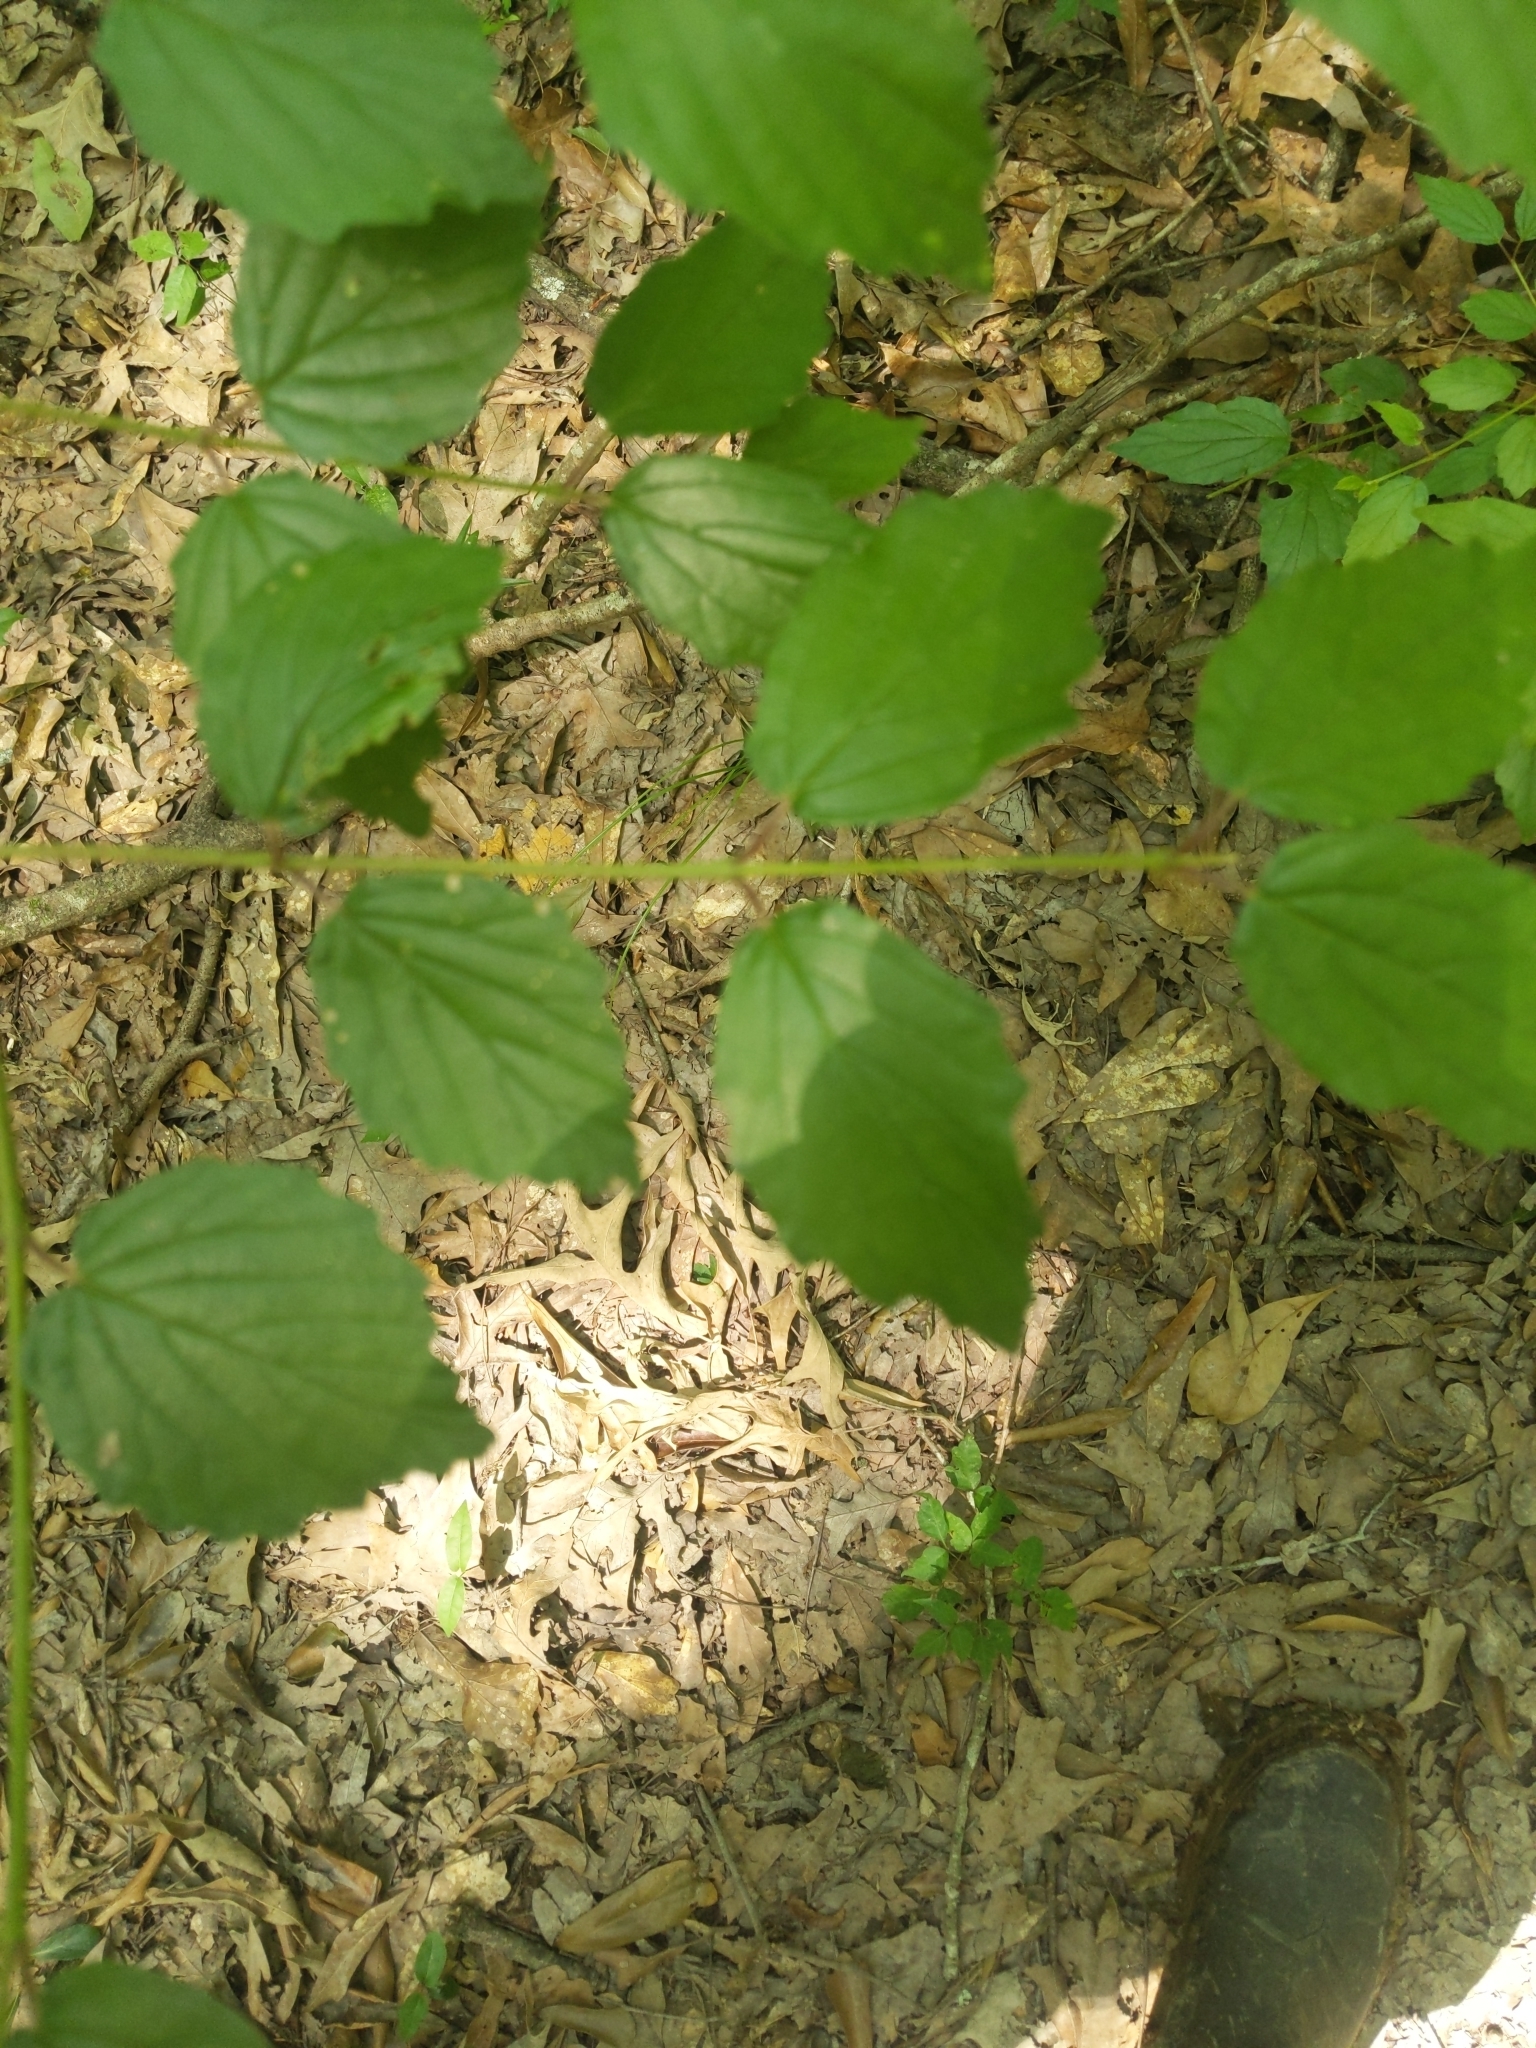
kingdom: Plantae
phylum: Tracheophyta
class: Magnoliopsida
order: Dipsacales
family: Viburnaceae
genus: Viburnum
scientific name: Viburnum scabrellum
